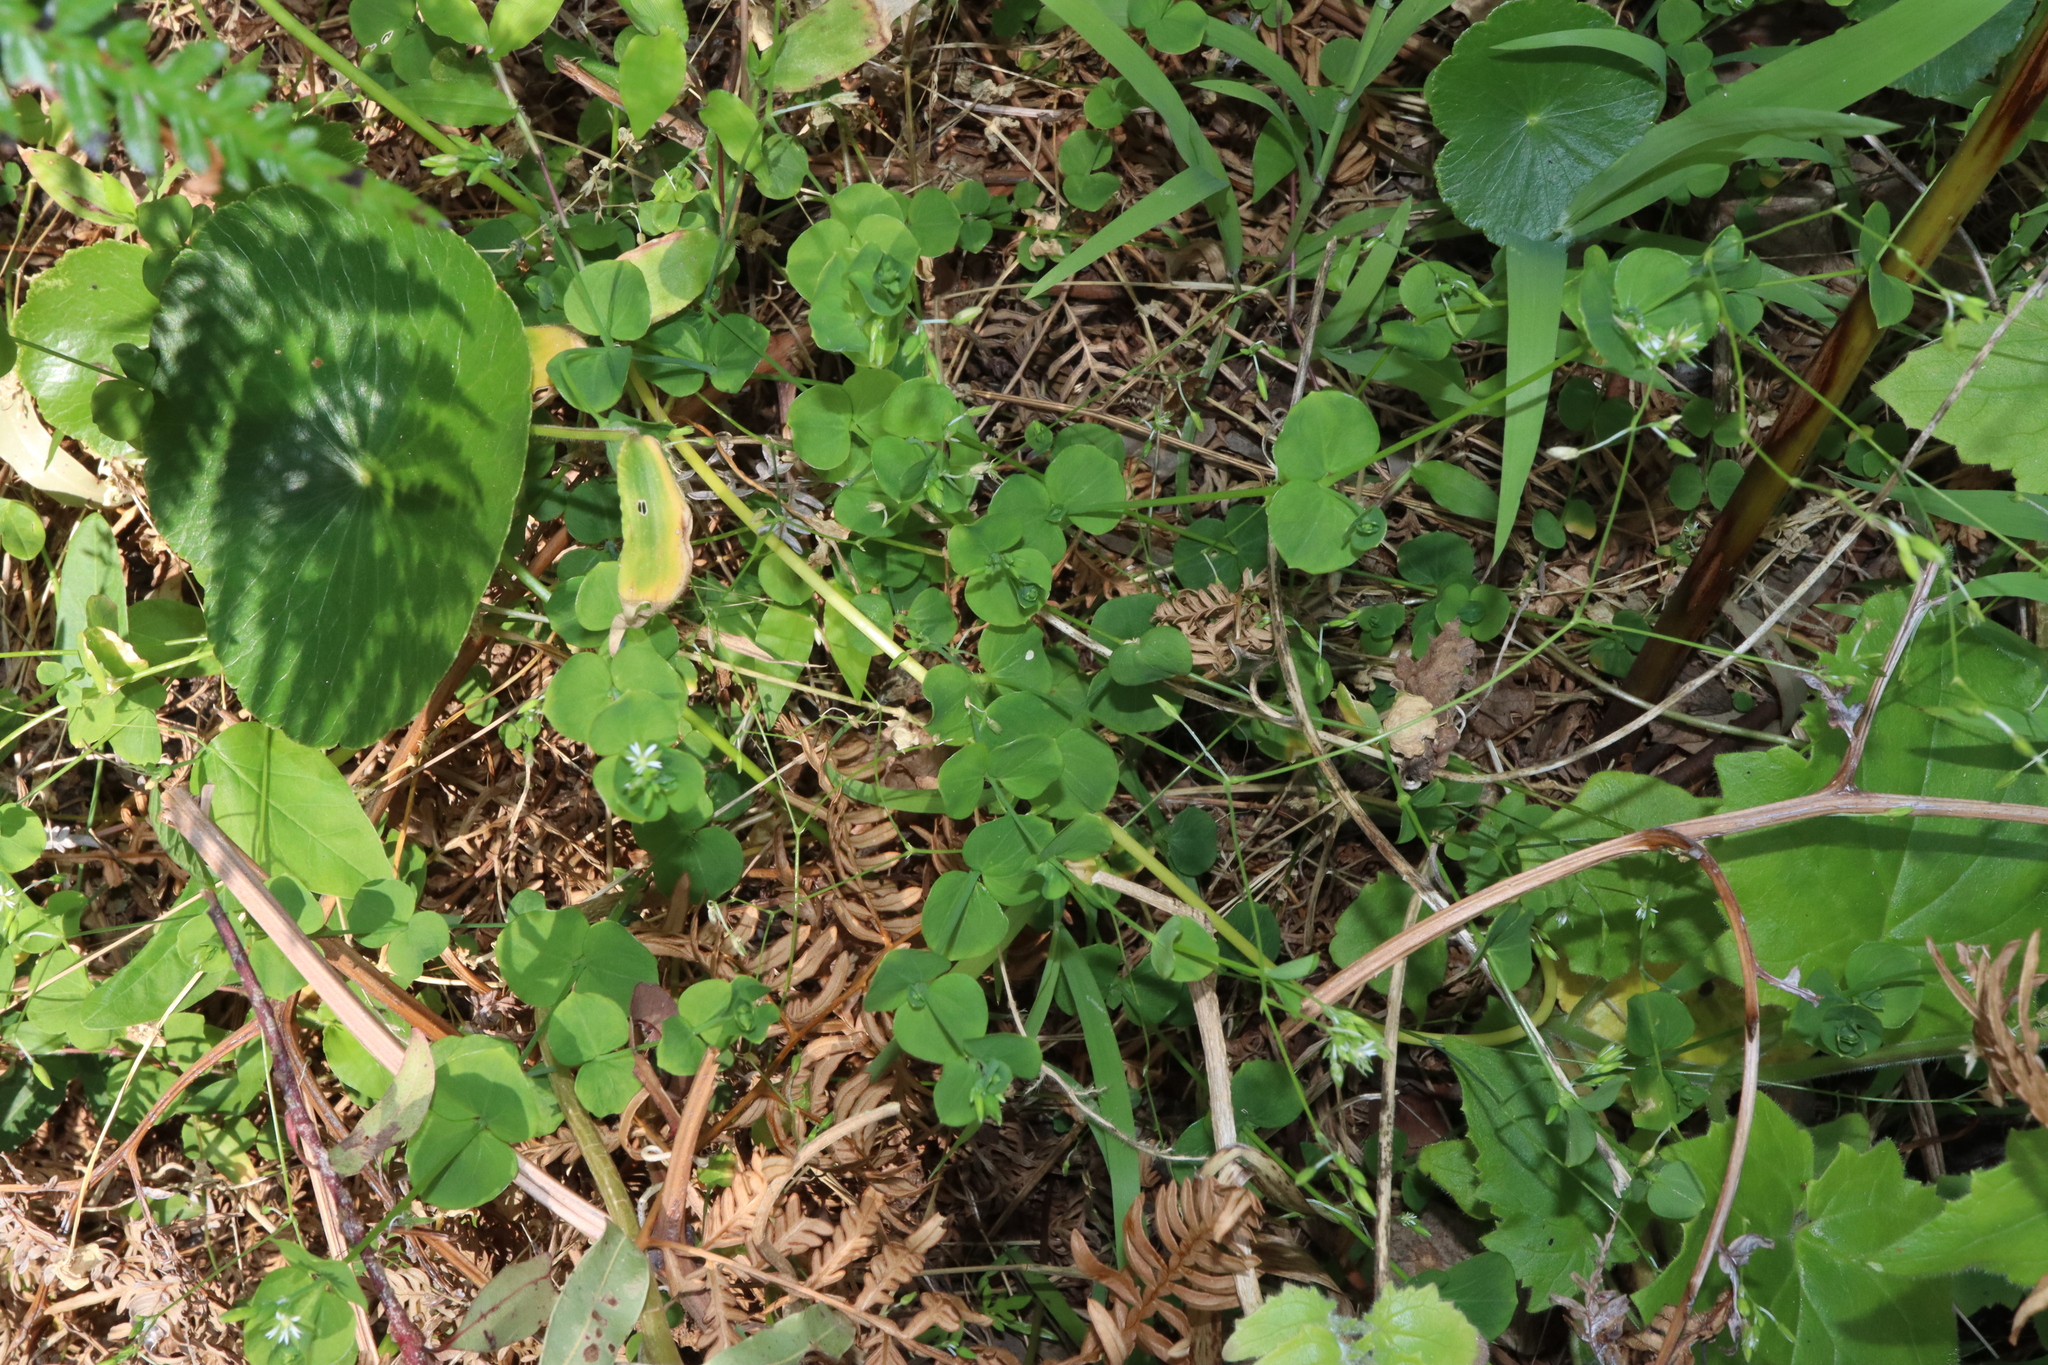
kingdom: Plantae
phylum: Tracheophyta
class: Magnoliopsida
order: Caryophyllales
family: Caryophyllaceae
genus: Drymaria
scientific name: Drymaria cordata
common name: Whitesnow
